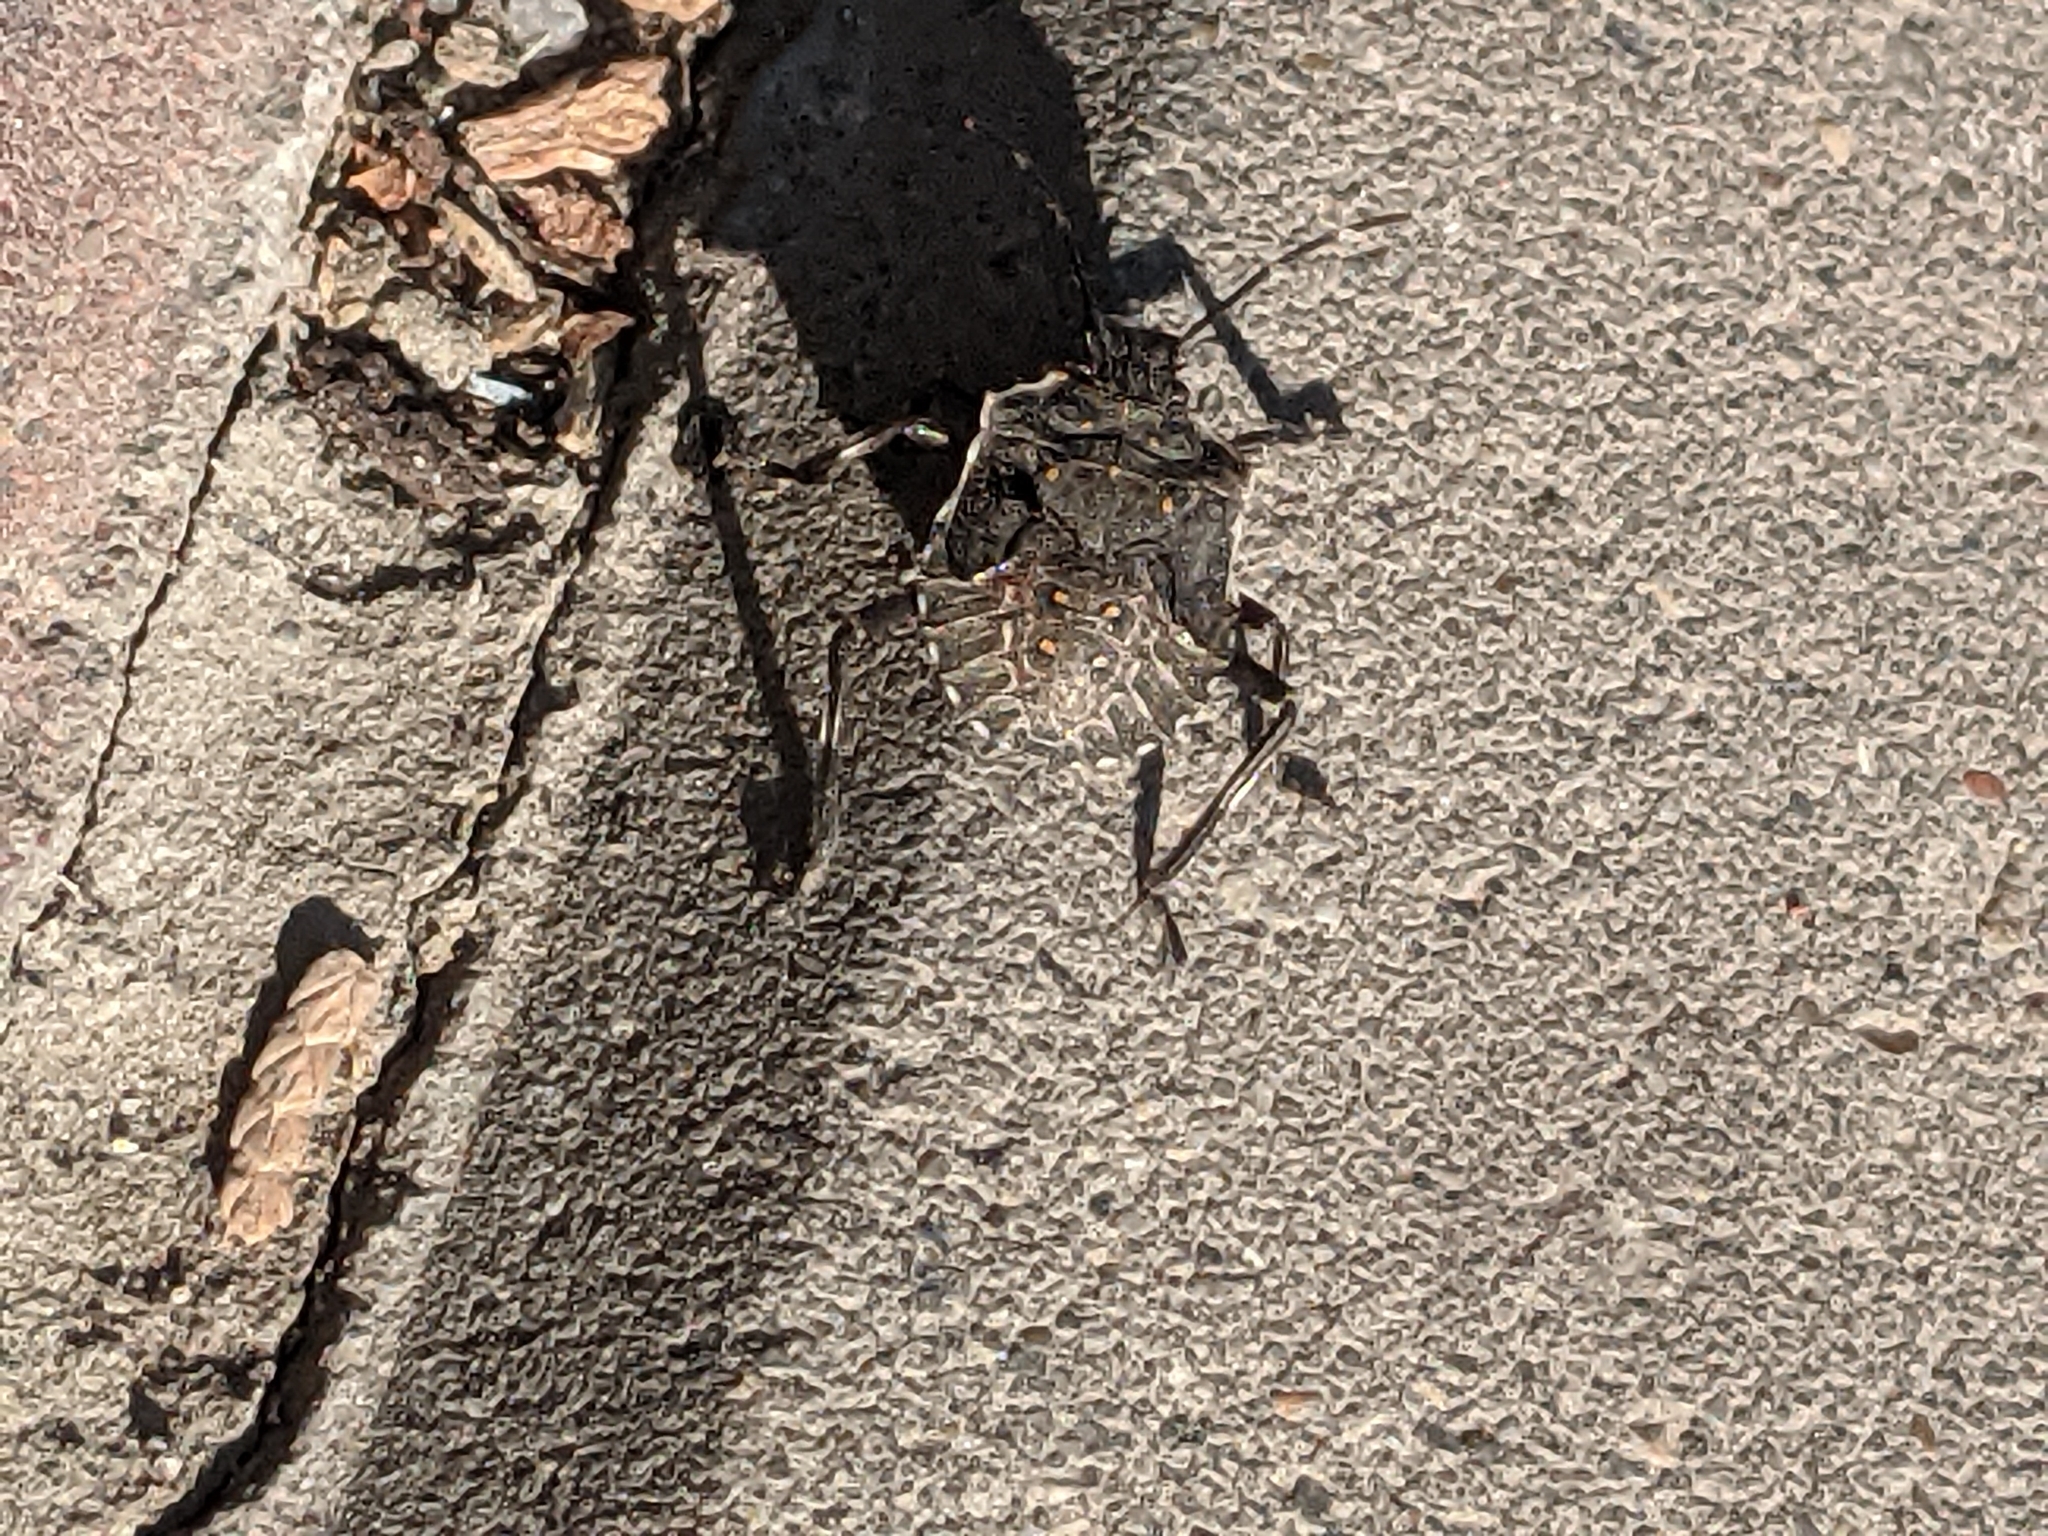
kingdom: Animalia
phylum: Arthropoda
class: Insecta
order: Hemiptera
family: Pentatomidae
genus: Halyomorpha
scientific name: Halyomorpha halys
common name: Brown marmorated stink bug
